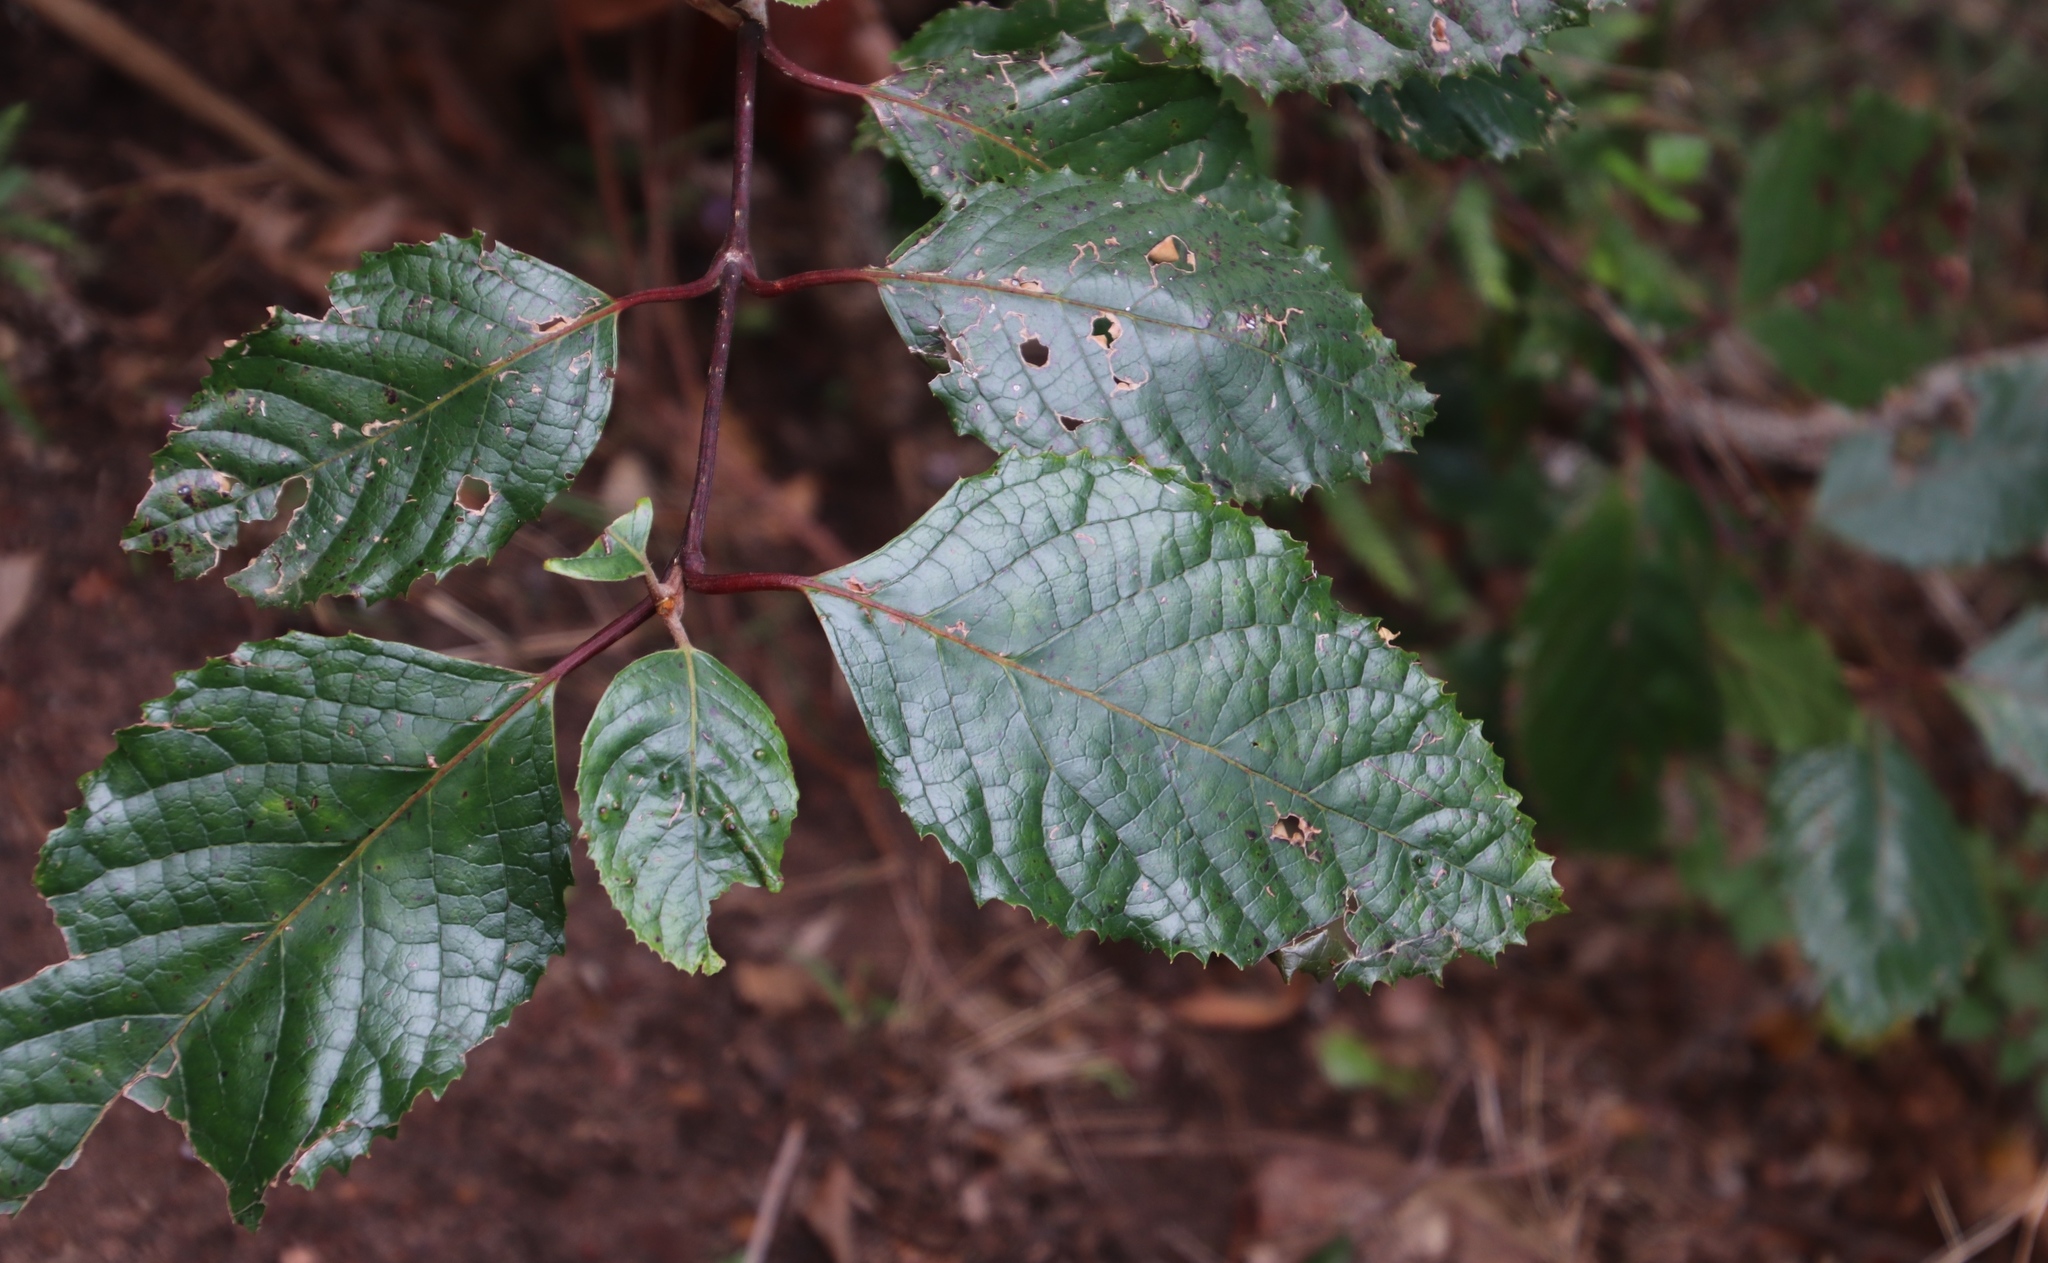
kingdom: Plantae
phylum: Tracheophyta
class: Magnoliopsida
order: Cornales
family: Curtisiaceae
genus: Curtisia
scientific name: Curtisia dentata
